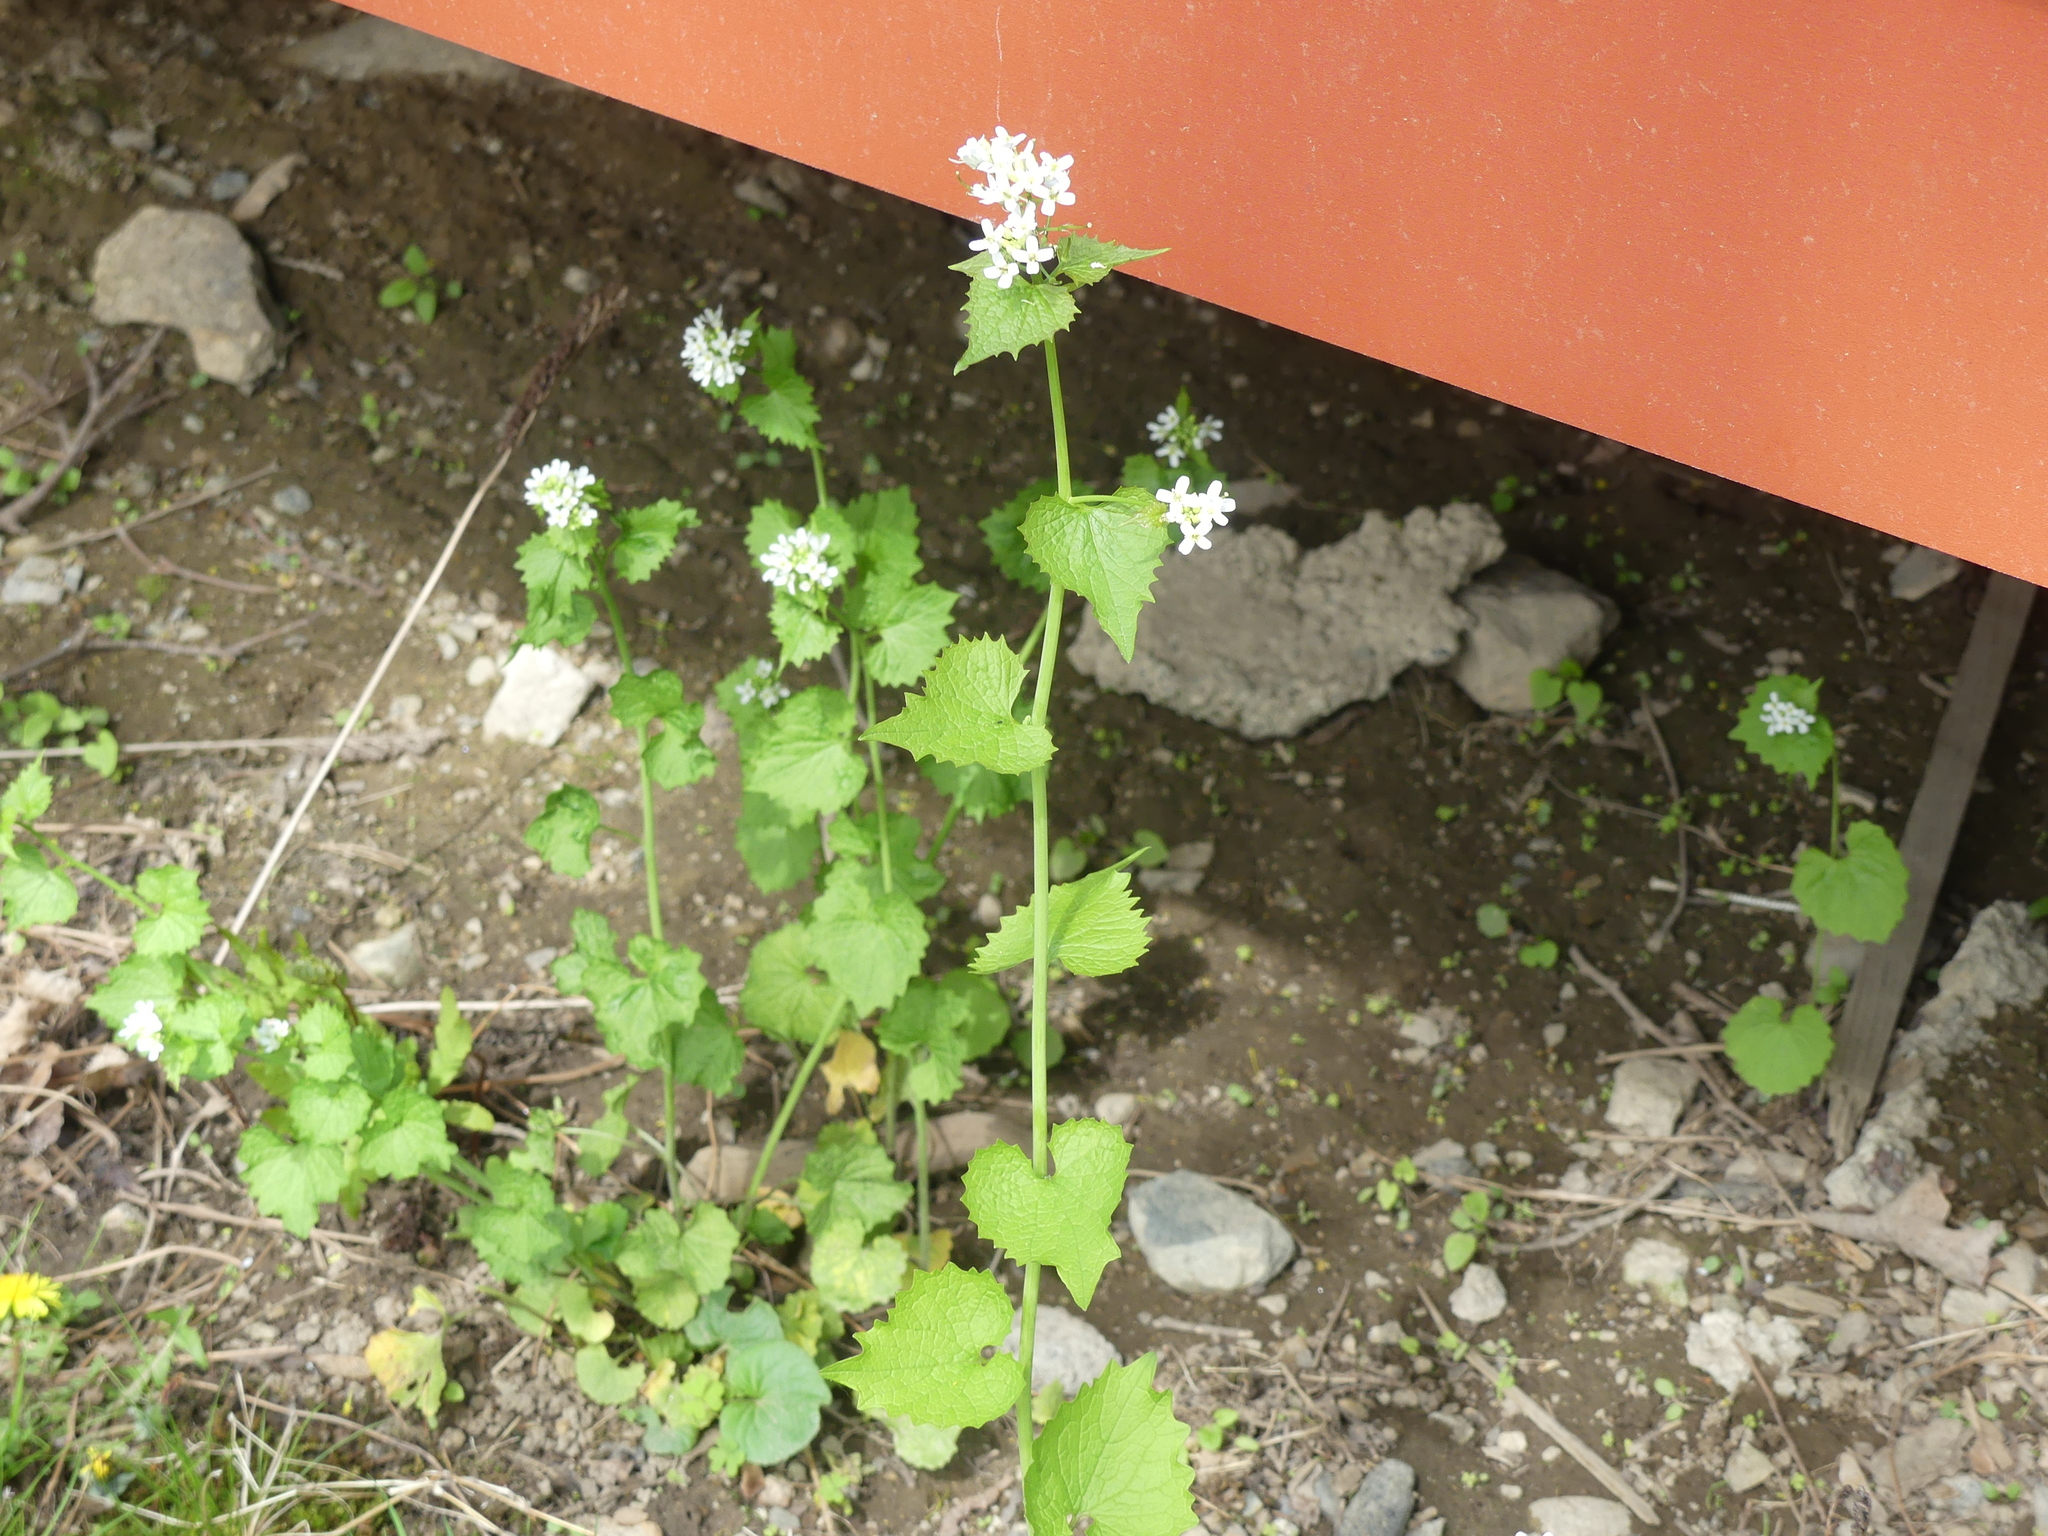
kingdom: Plantae
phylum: Tracheophyta
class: Magnoliopsida
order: Brassicales
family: Brassicaceae
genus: Alliaria
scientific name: Alliaria petiolata
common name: Garlic mustard
